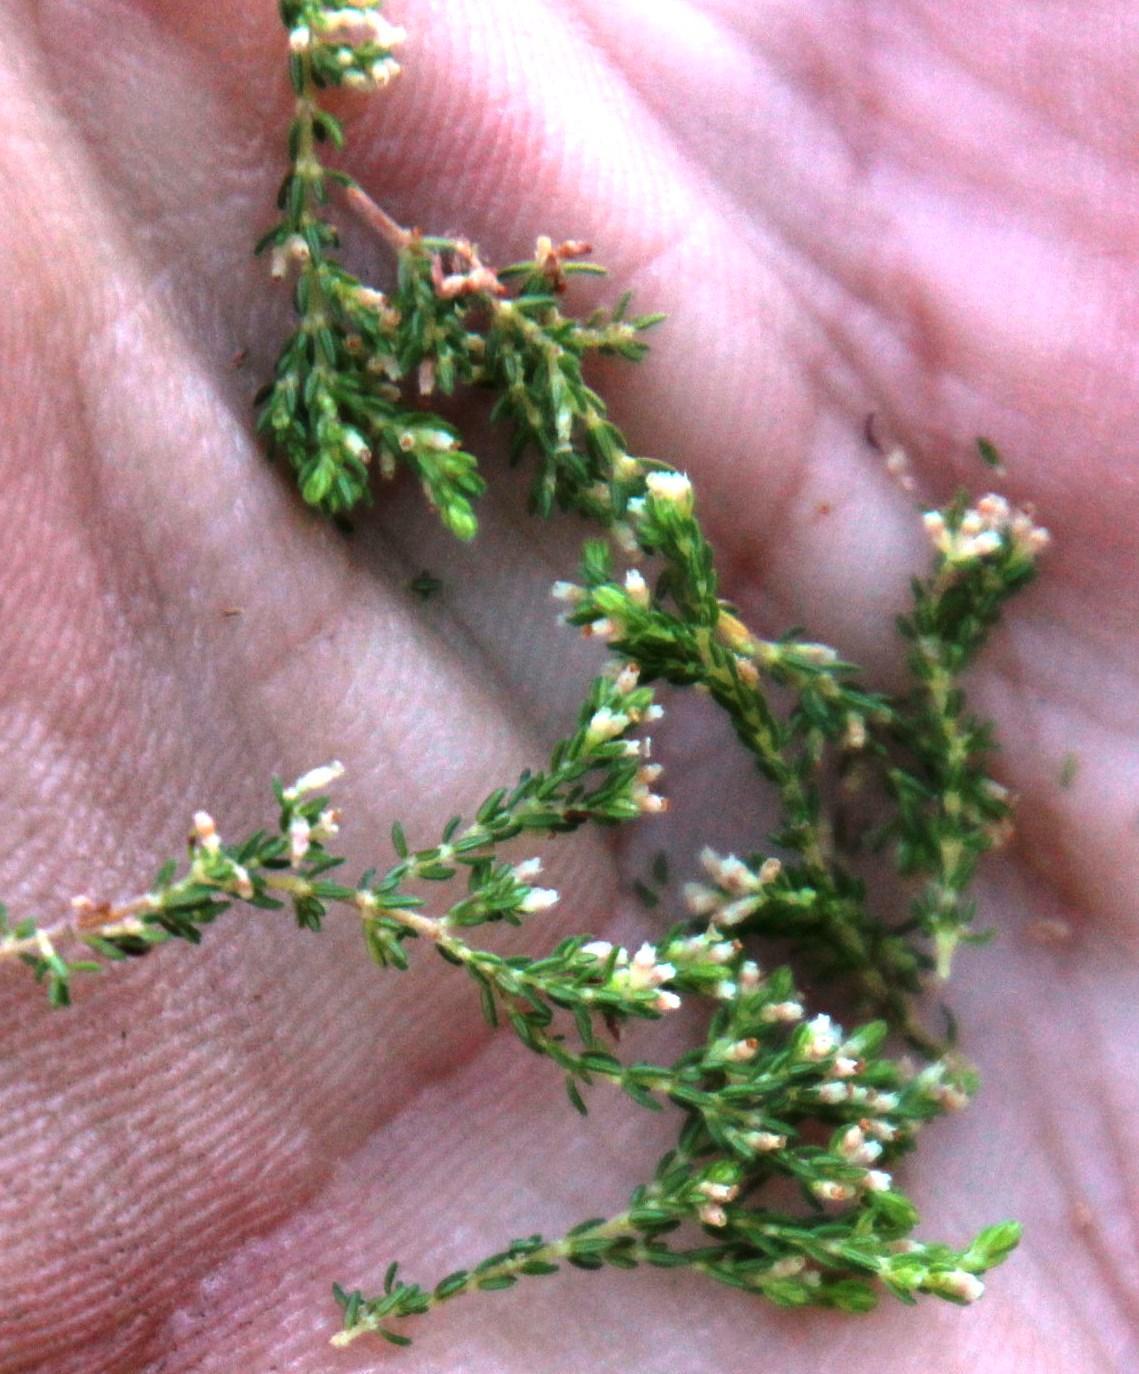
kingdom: Plantae
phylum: Tracheophyta
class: Magnoliopsida
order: Ericales
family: Ericaceae
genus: Erica
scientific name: Erica tristis
